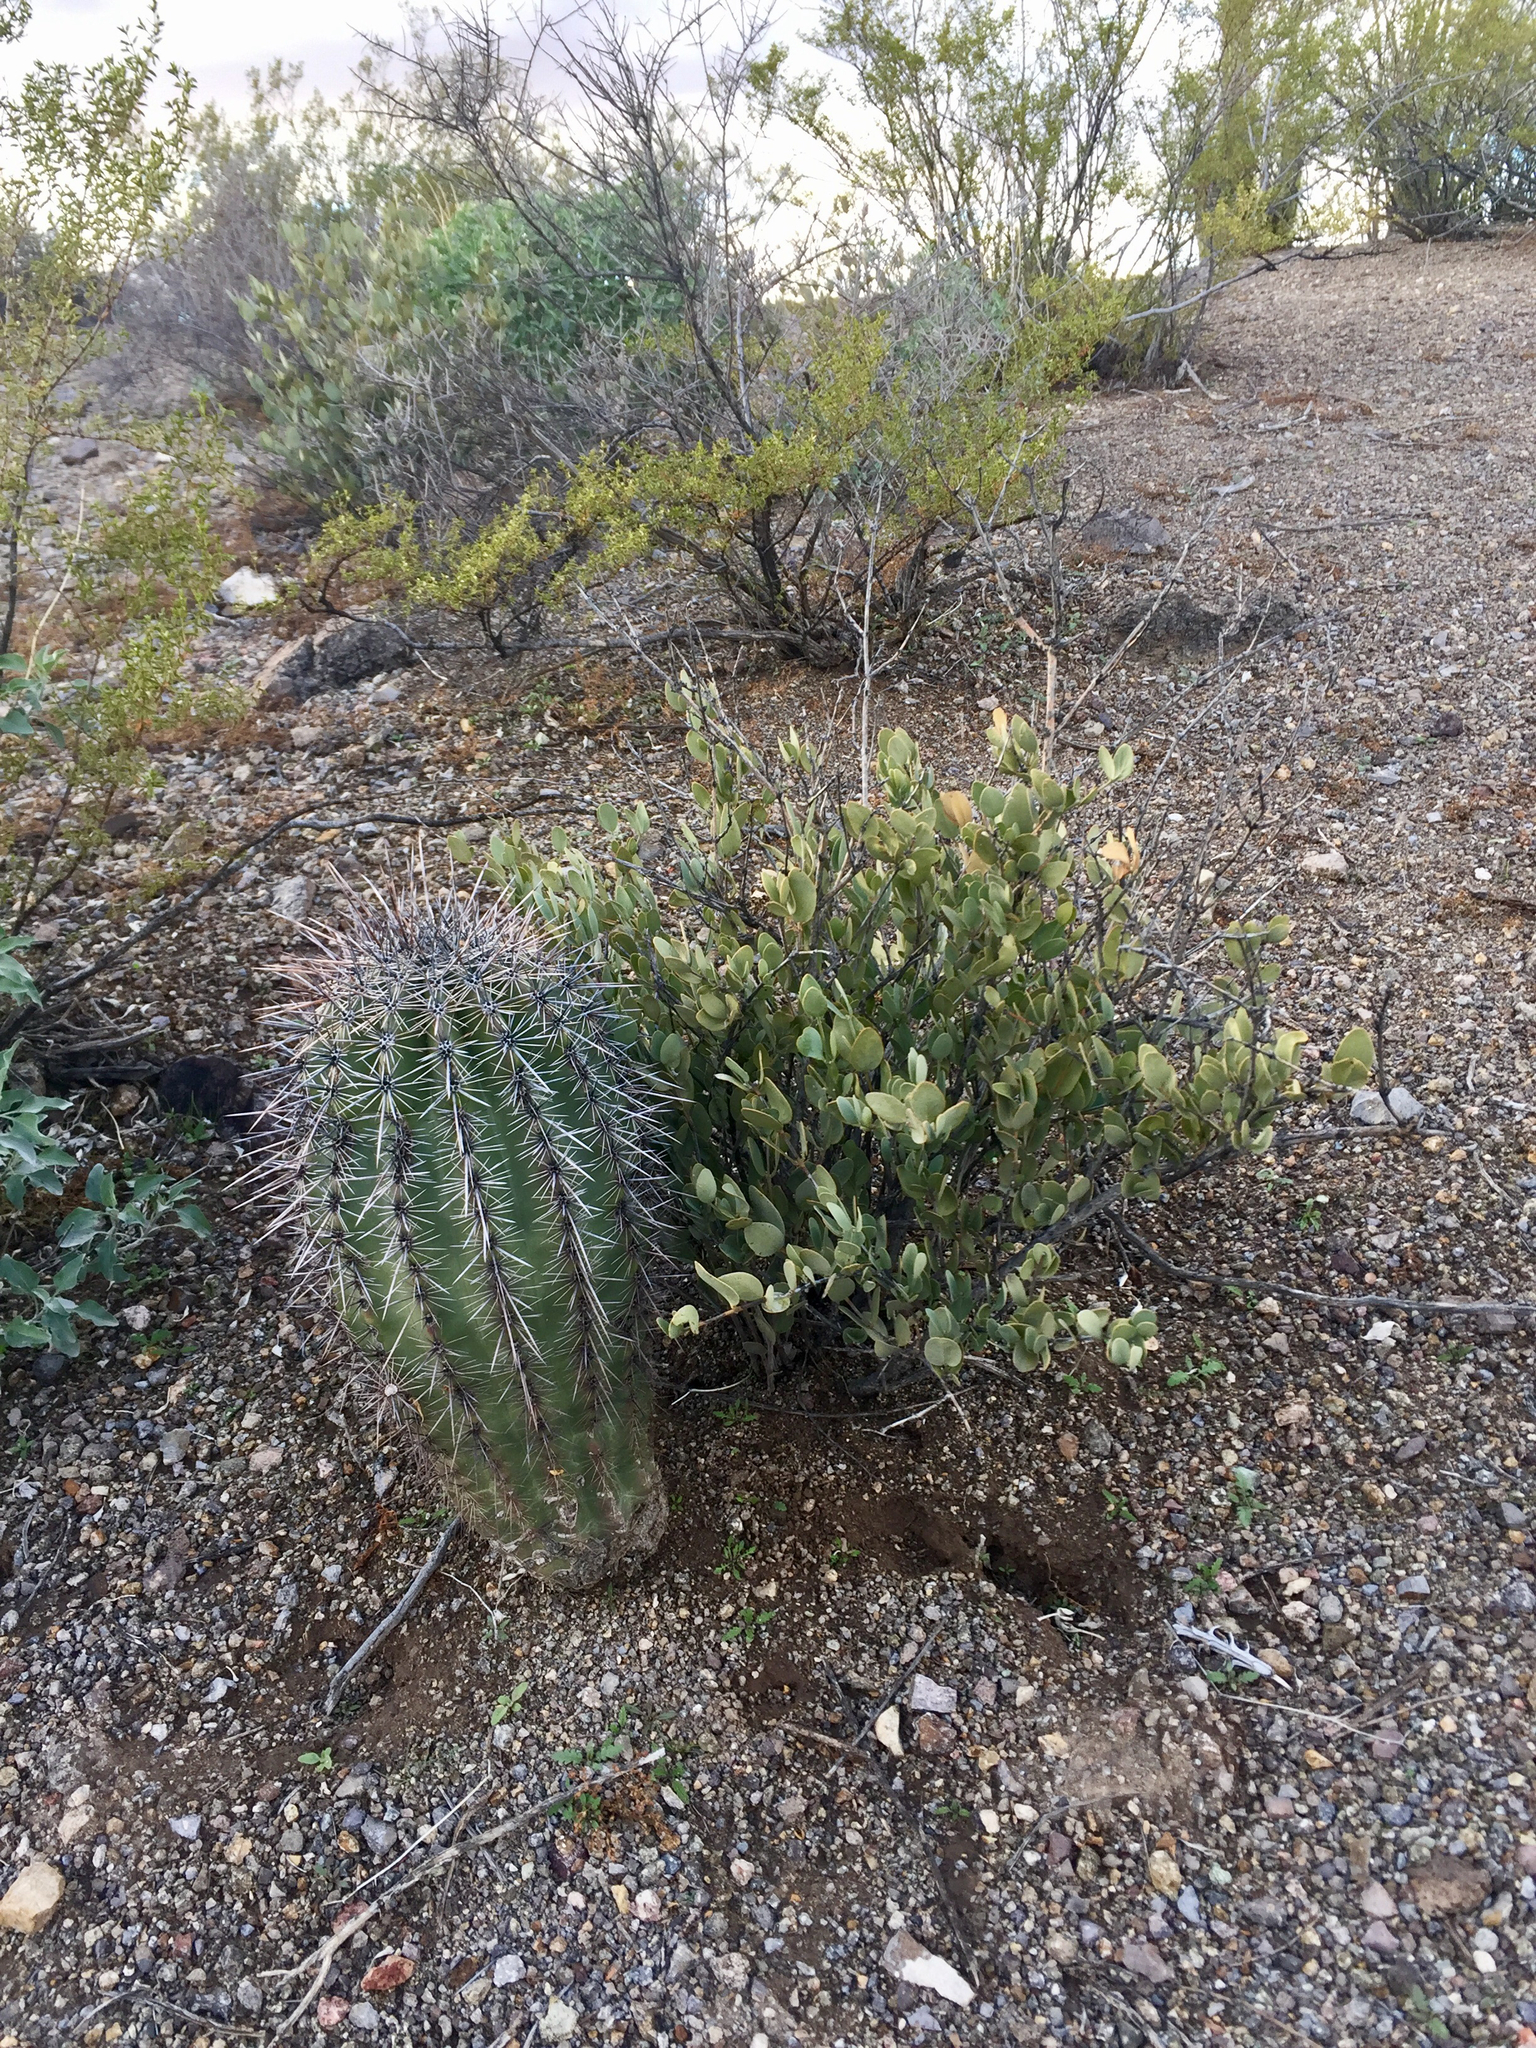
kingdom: Plantae
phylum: Tracheophyta
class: Magnoliopsida
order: Caryophyllales
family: Simmondsiaceae
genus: Simmondsia
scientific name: Simmondsia chinensis
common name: Jojoba
